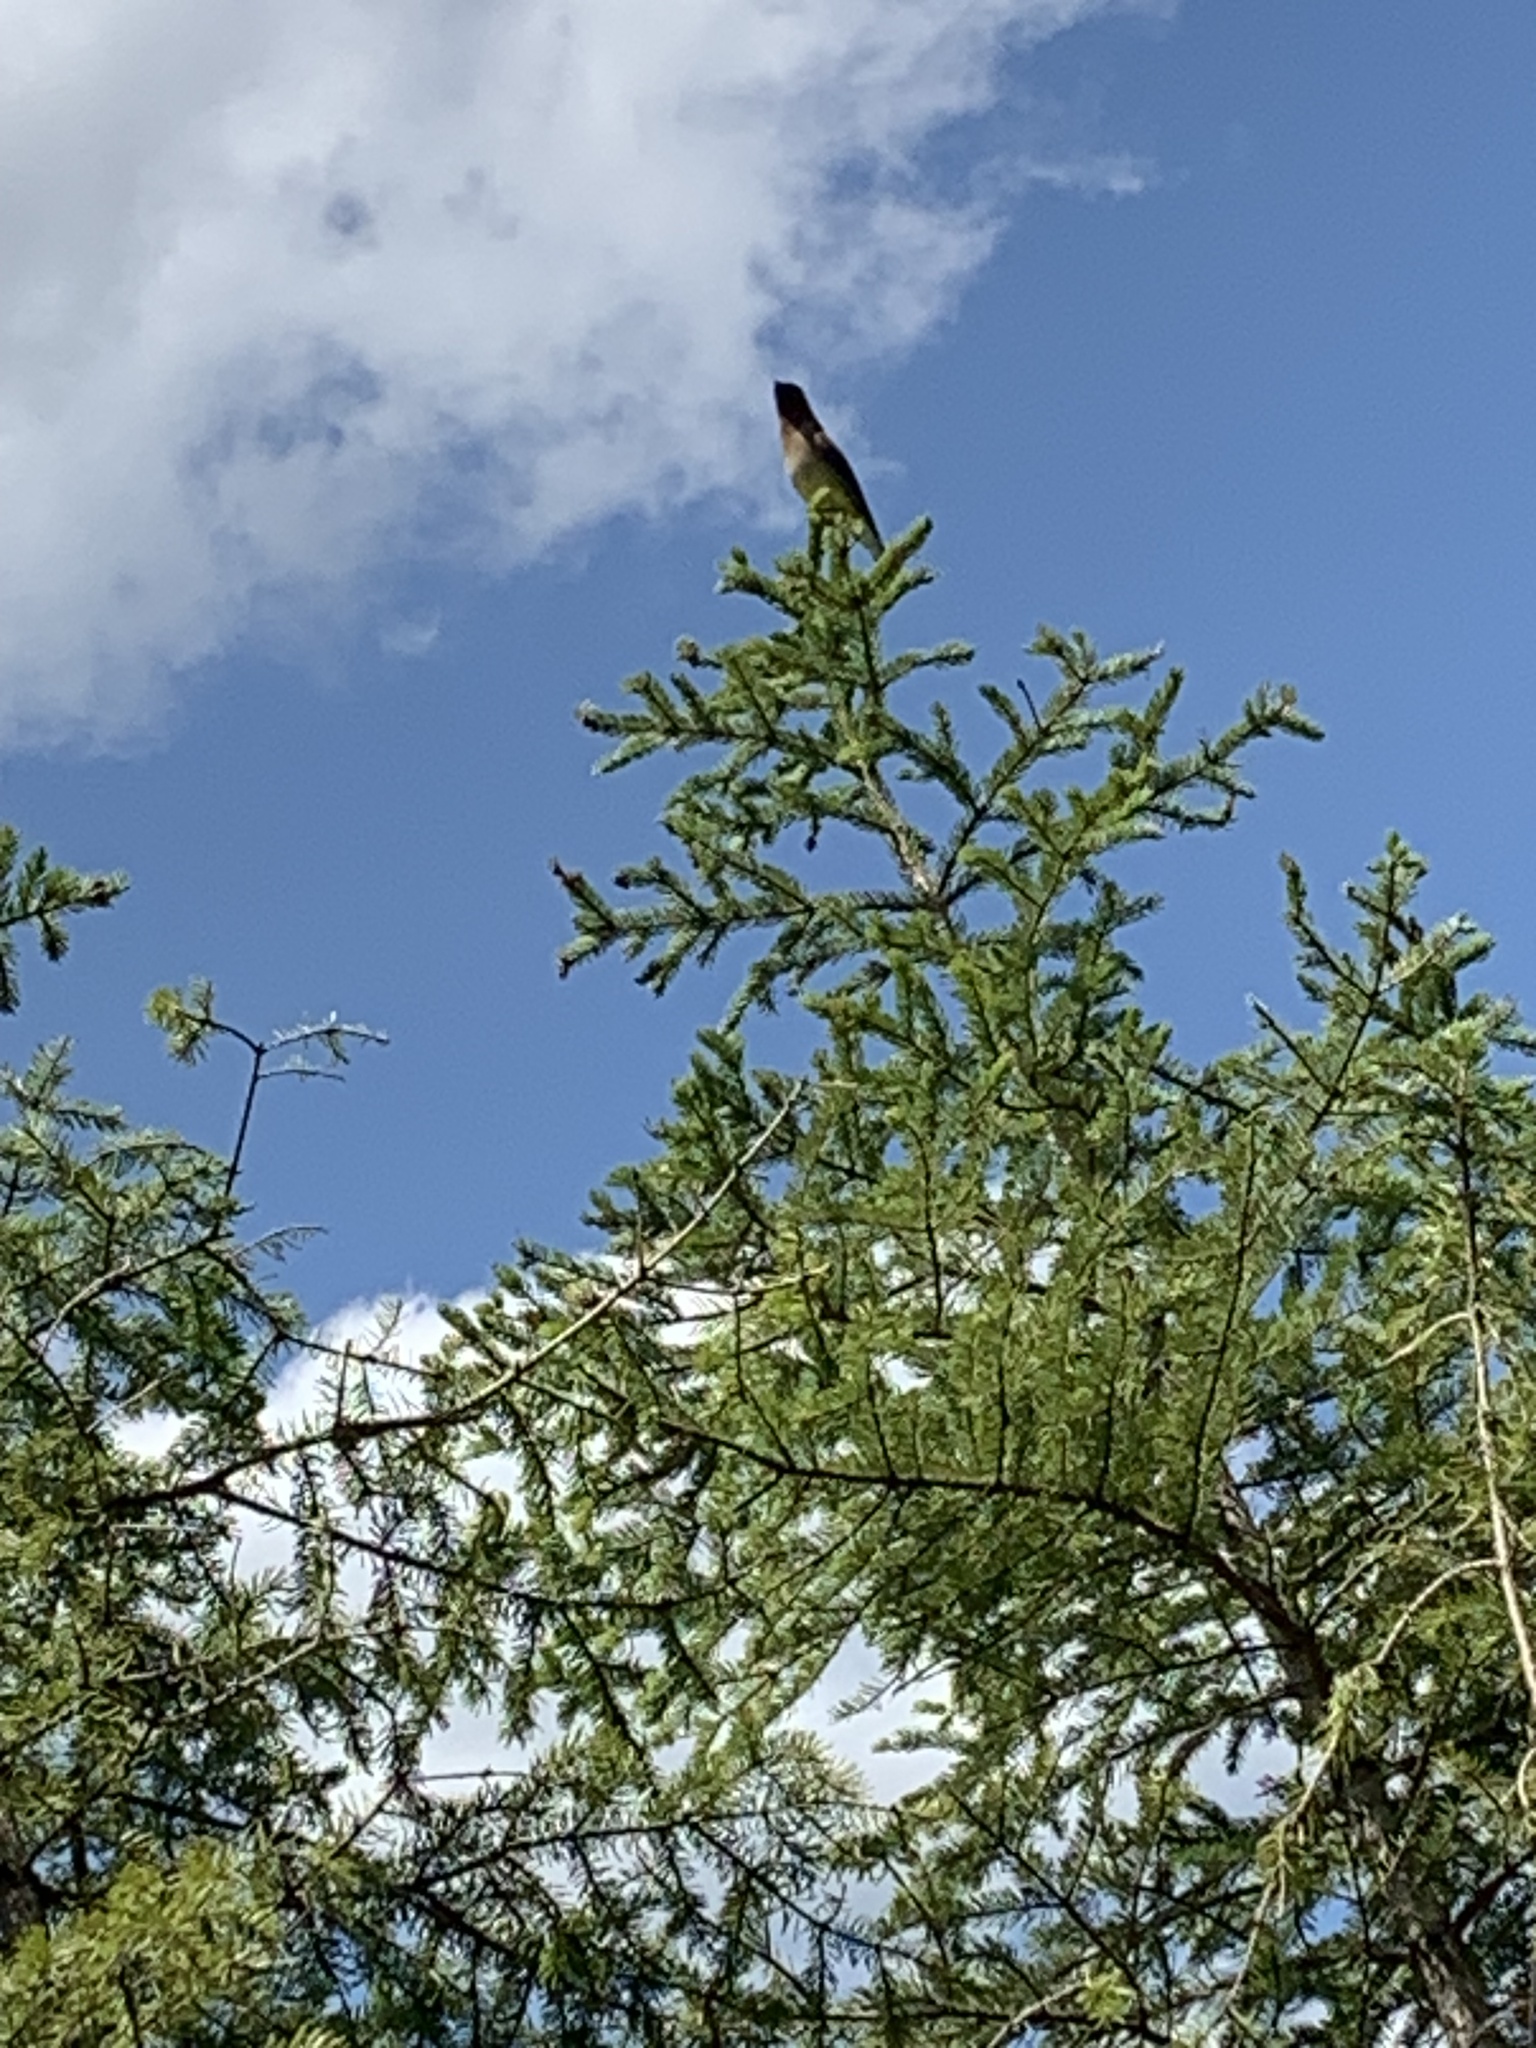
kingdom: Animalia
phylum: Chordata
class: Aves
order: Passeriformes
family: Bombycillidae
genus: Bombycilla
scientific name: Bombycilla cedrorum
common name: Cedar waxwing
